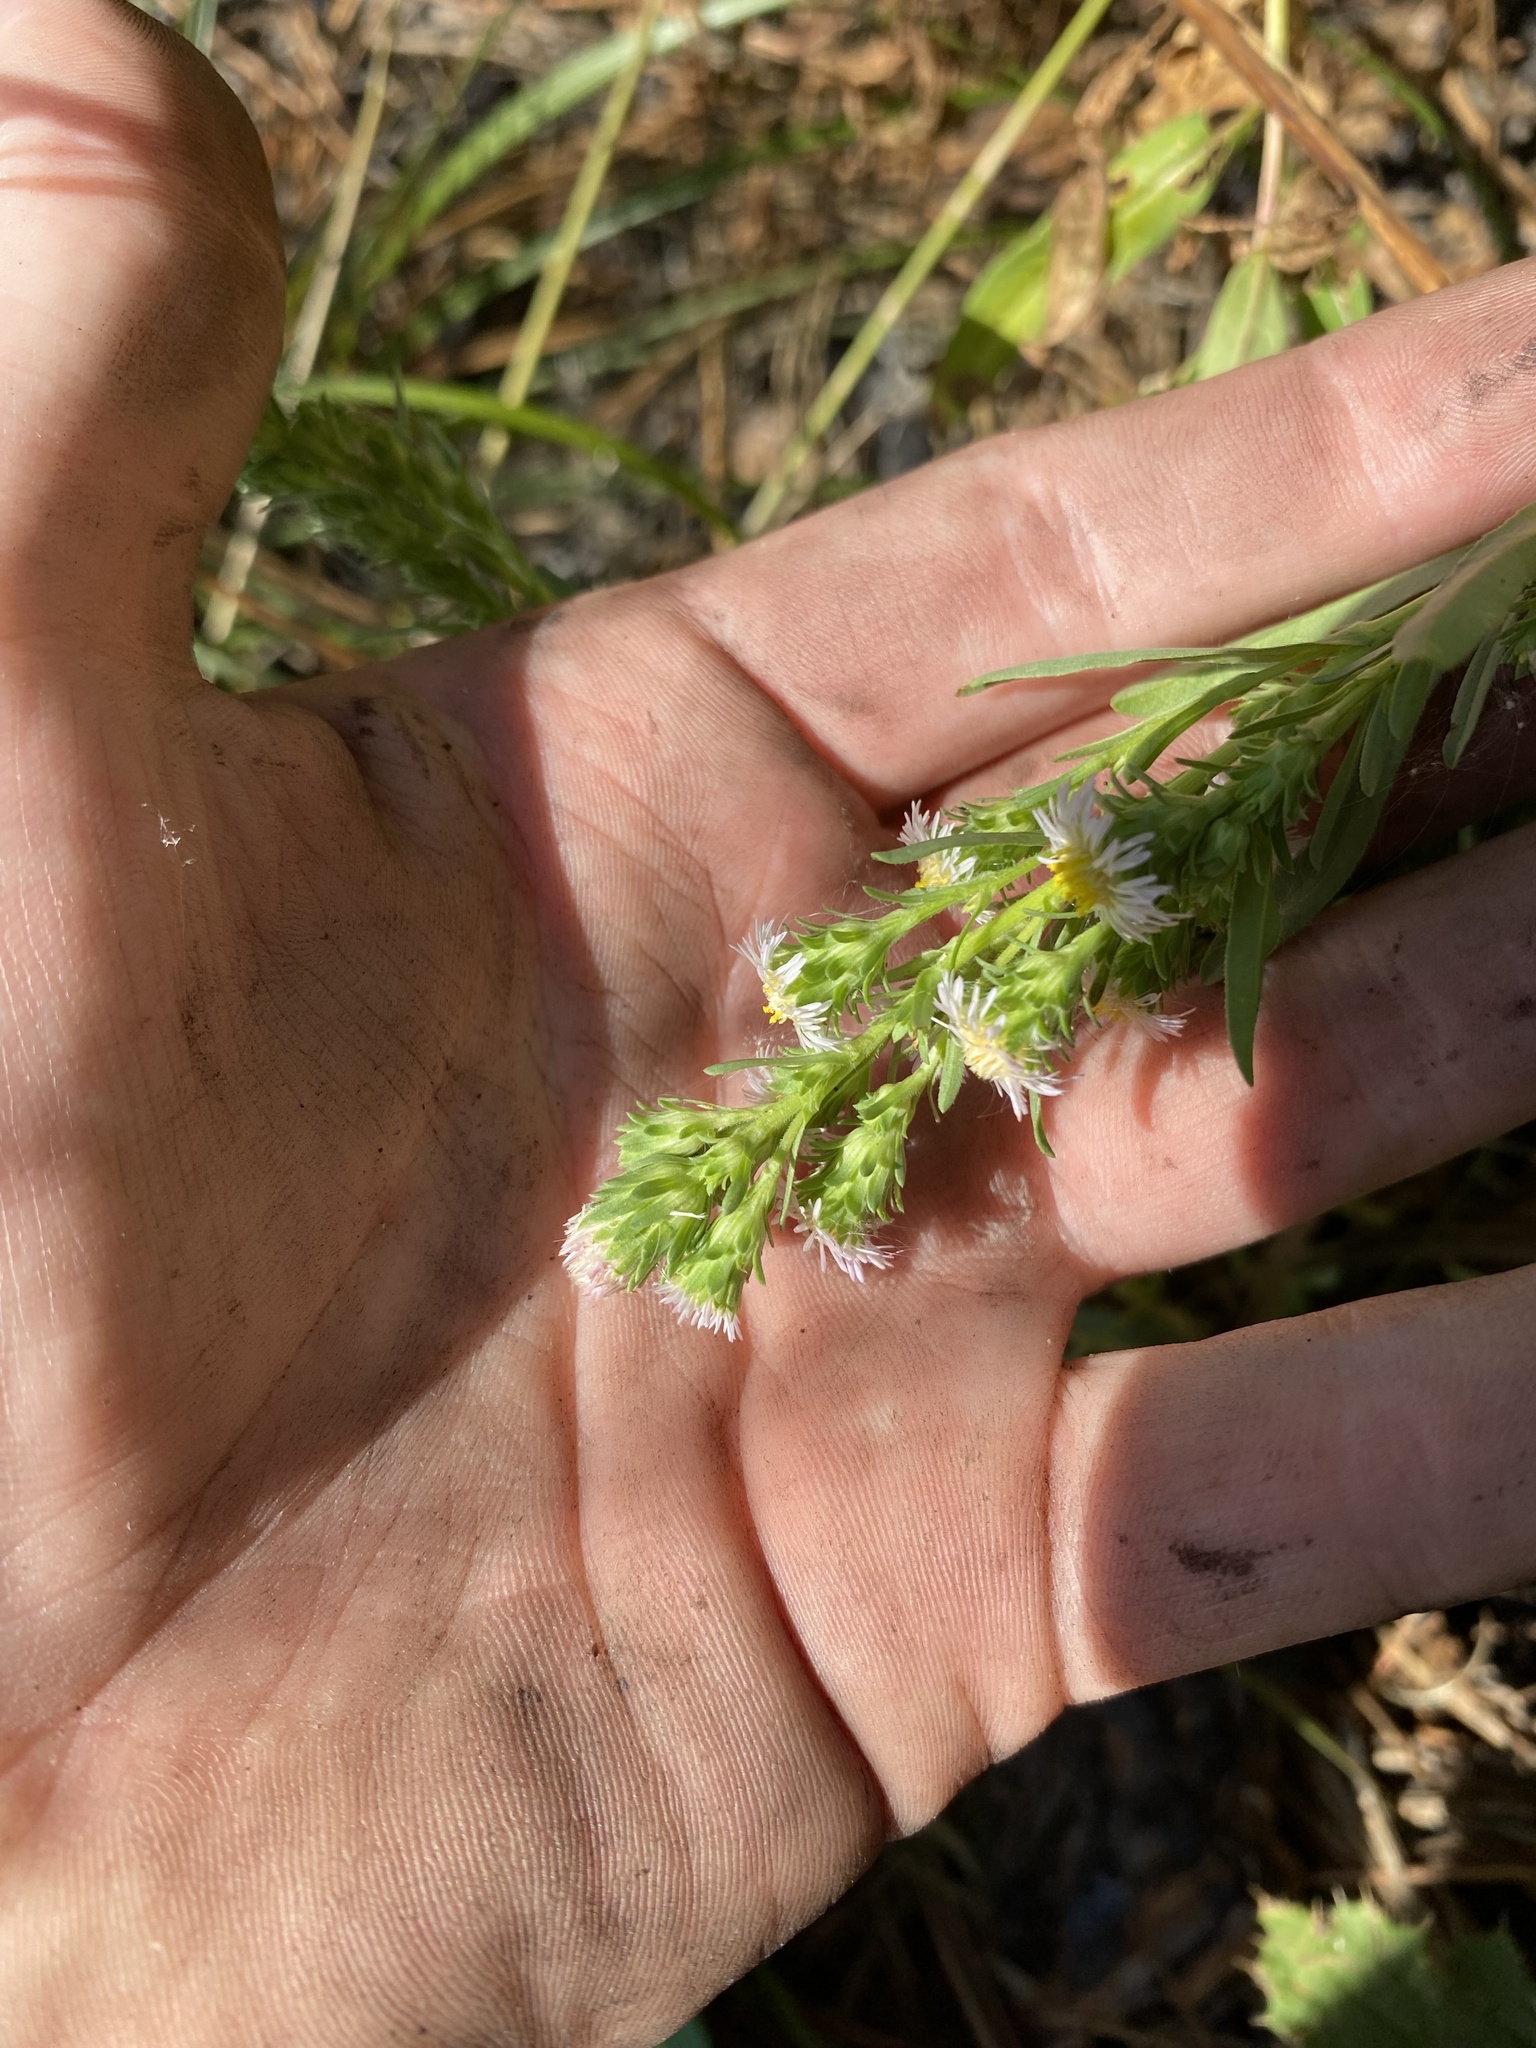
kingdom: Plantae
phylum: Tracheophyta
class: Magnoliopsida
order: Asterales
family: Asteraceae
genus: Symphyotrichum
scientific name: Symphyotrichum frondosum
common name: Leafy aster
